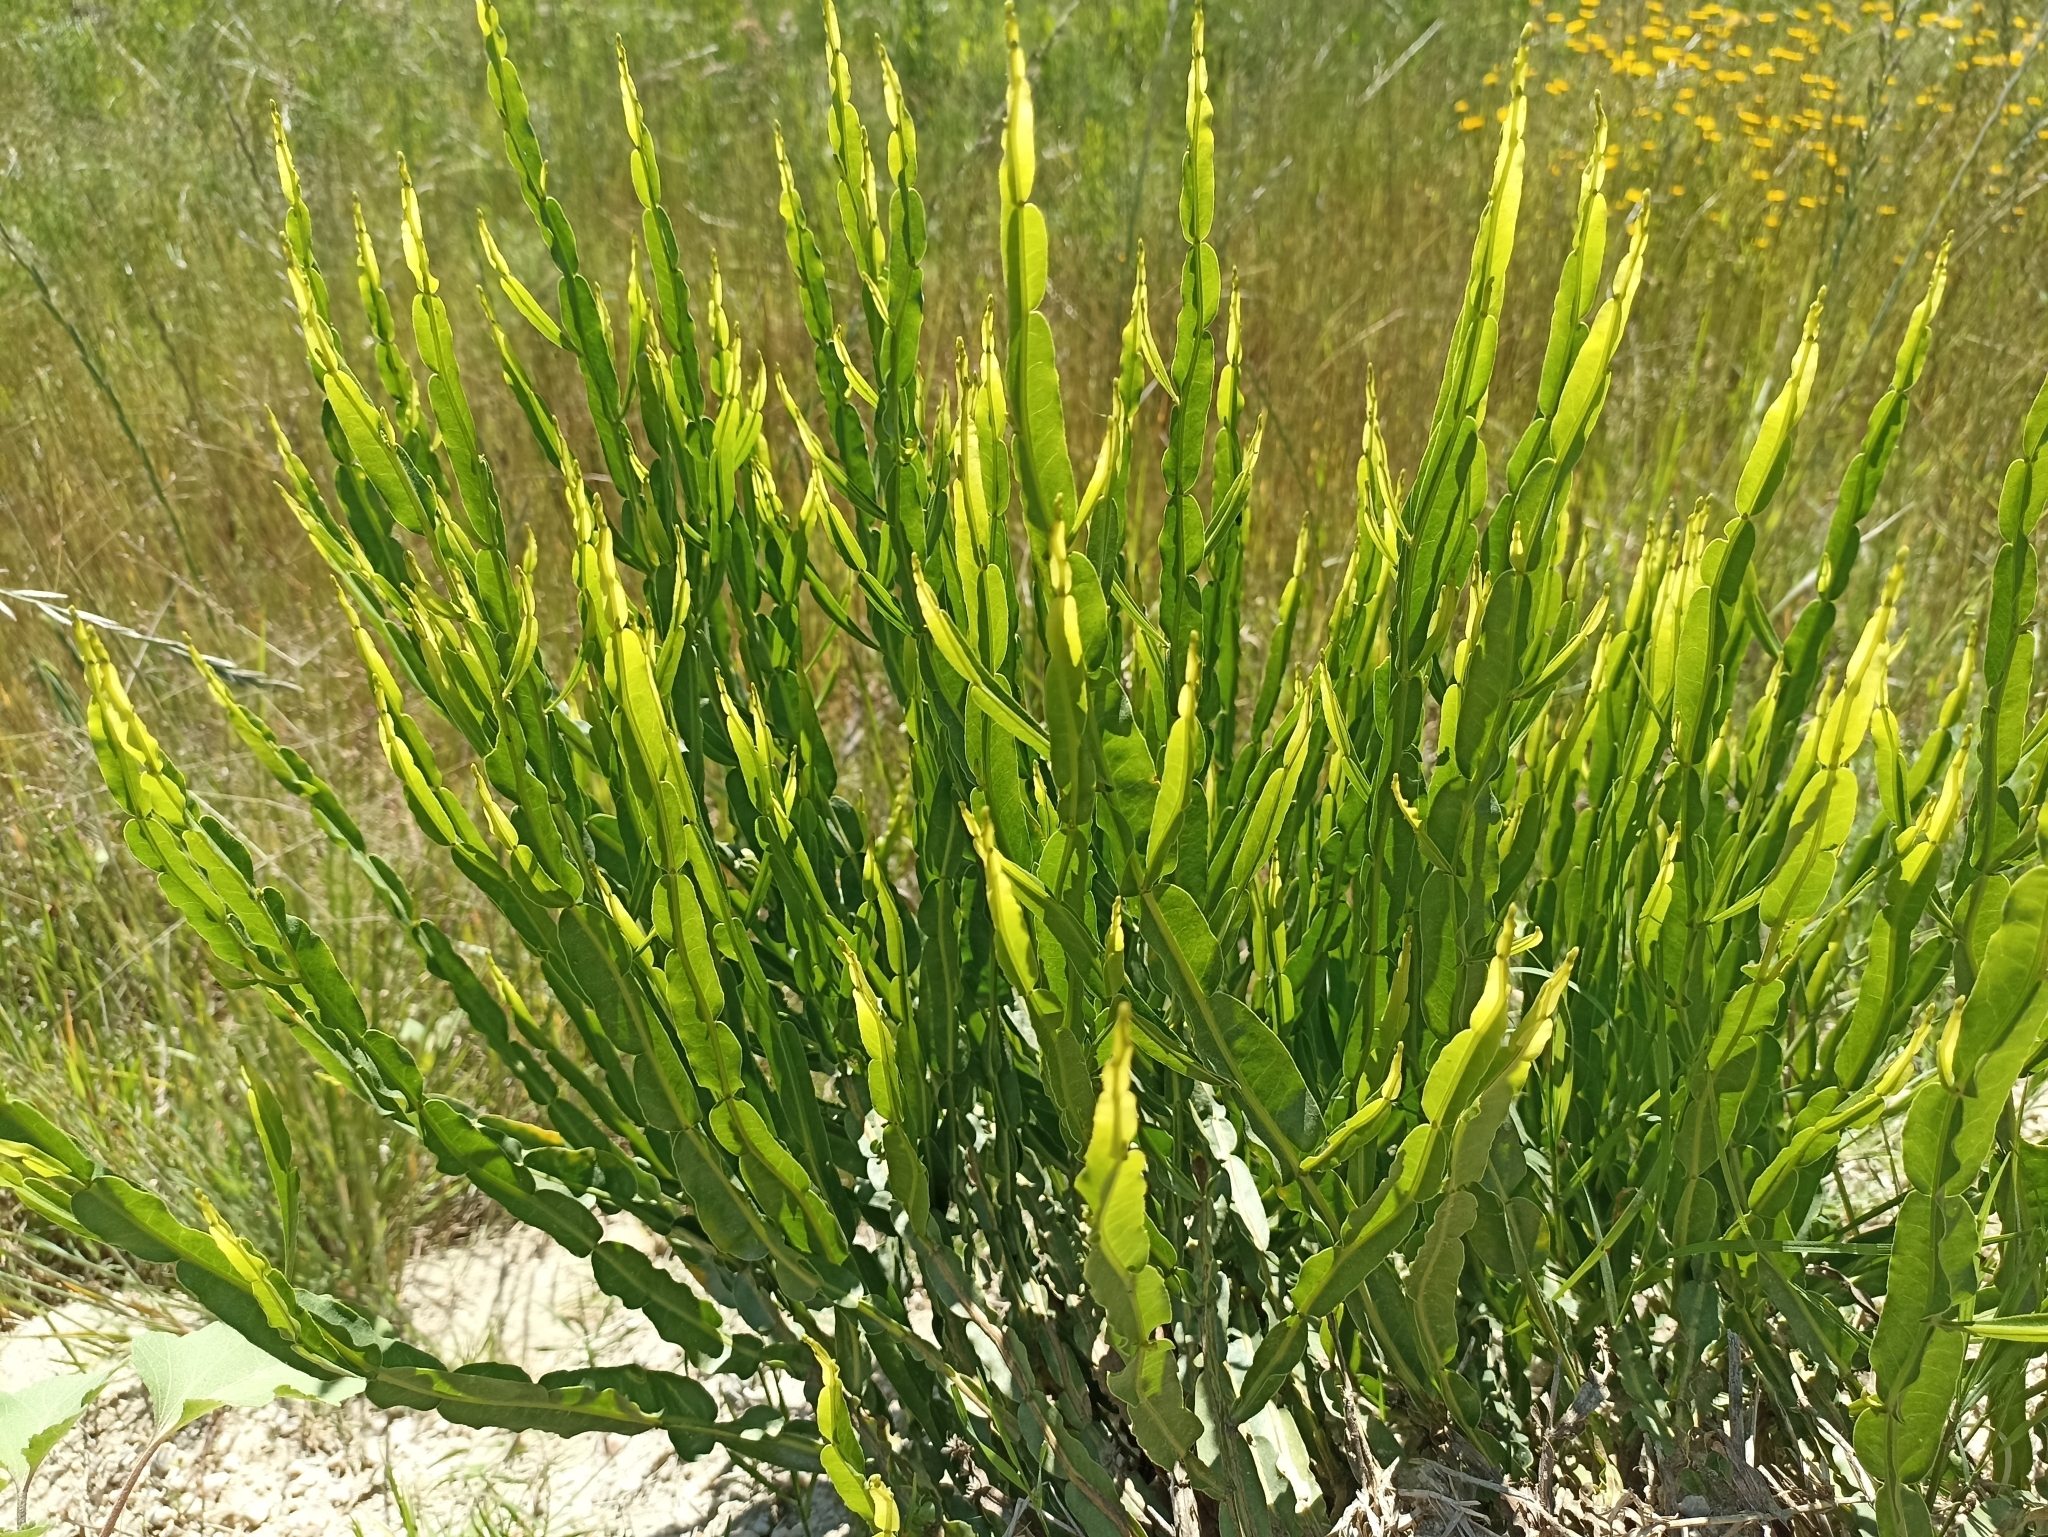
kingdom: Plantae
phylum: Tracheophyta
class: Magnoliopsida
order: Asterales
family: Asteraceae
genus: Baccharis
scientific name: Baccharis trimera
